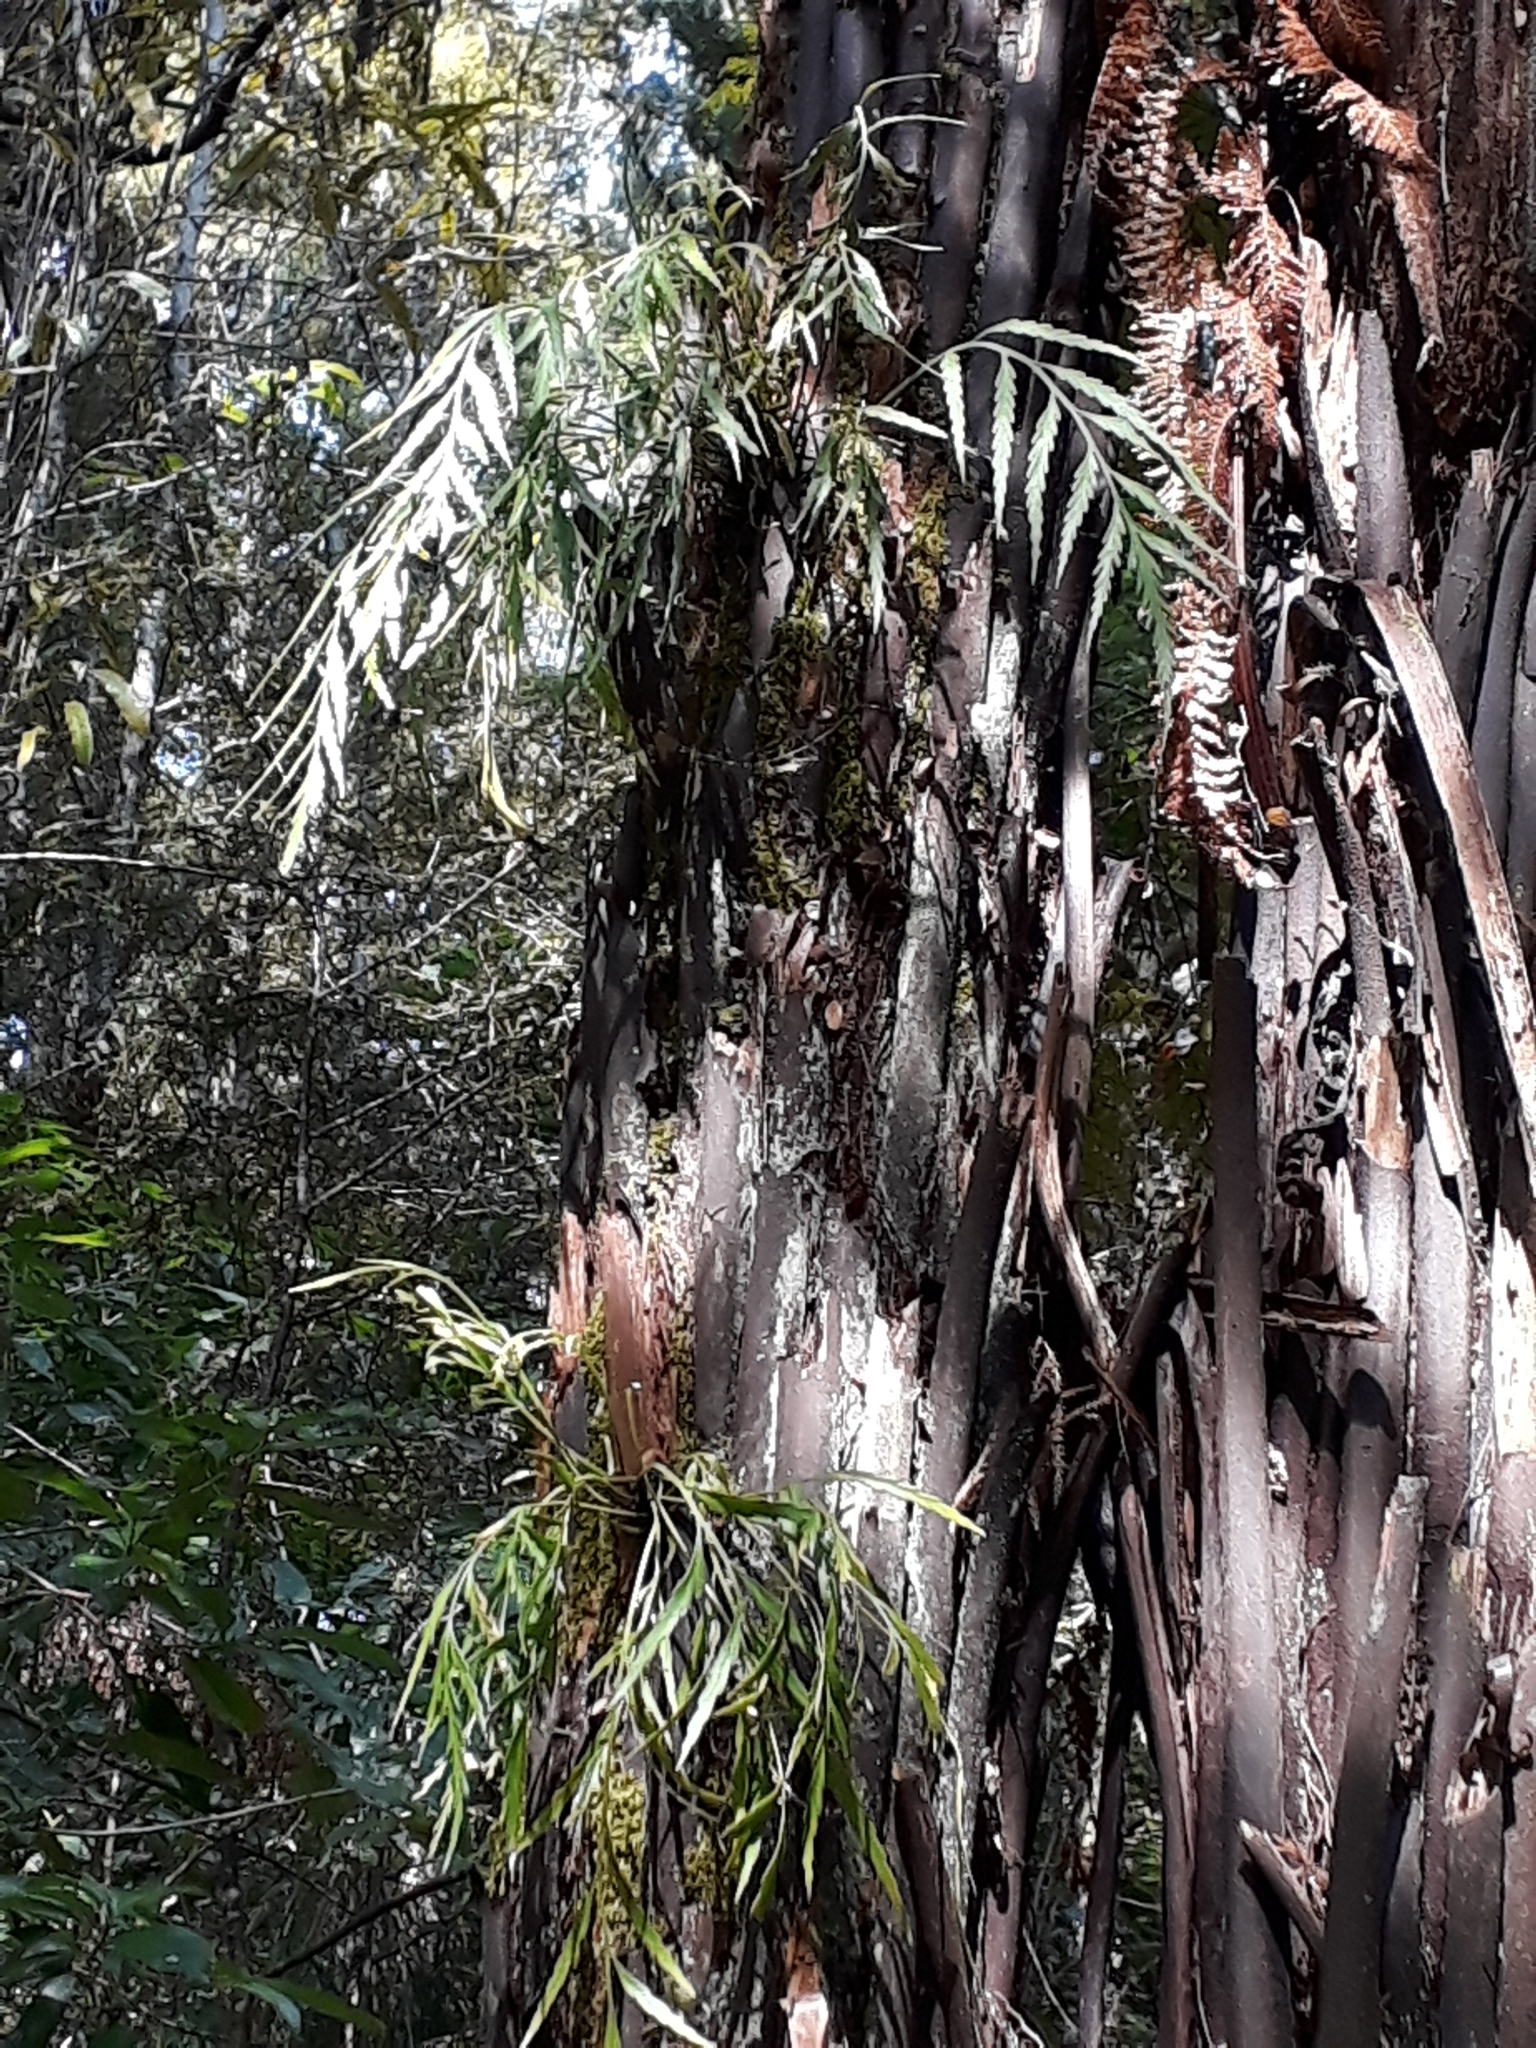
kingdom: Plantae
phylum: Tracheophyta
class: Polypodiopsida
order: Polypodiales
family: Aspleniaceae
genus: Asplenium
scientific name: Asplenium flaccidum
